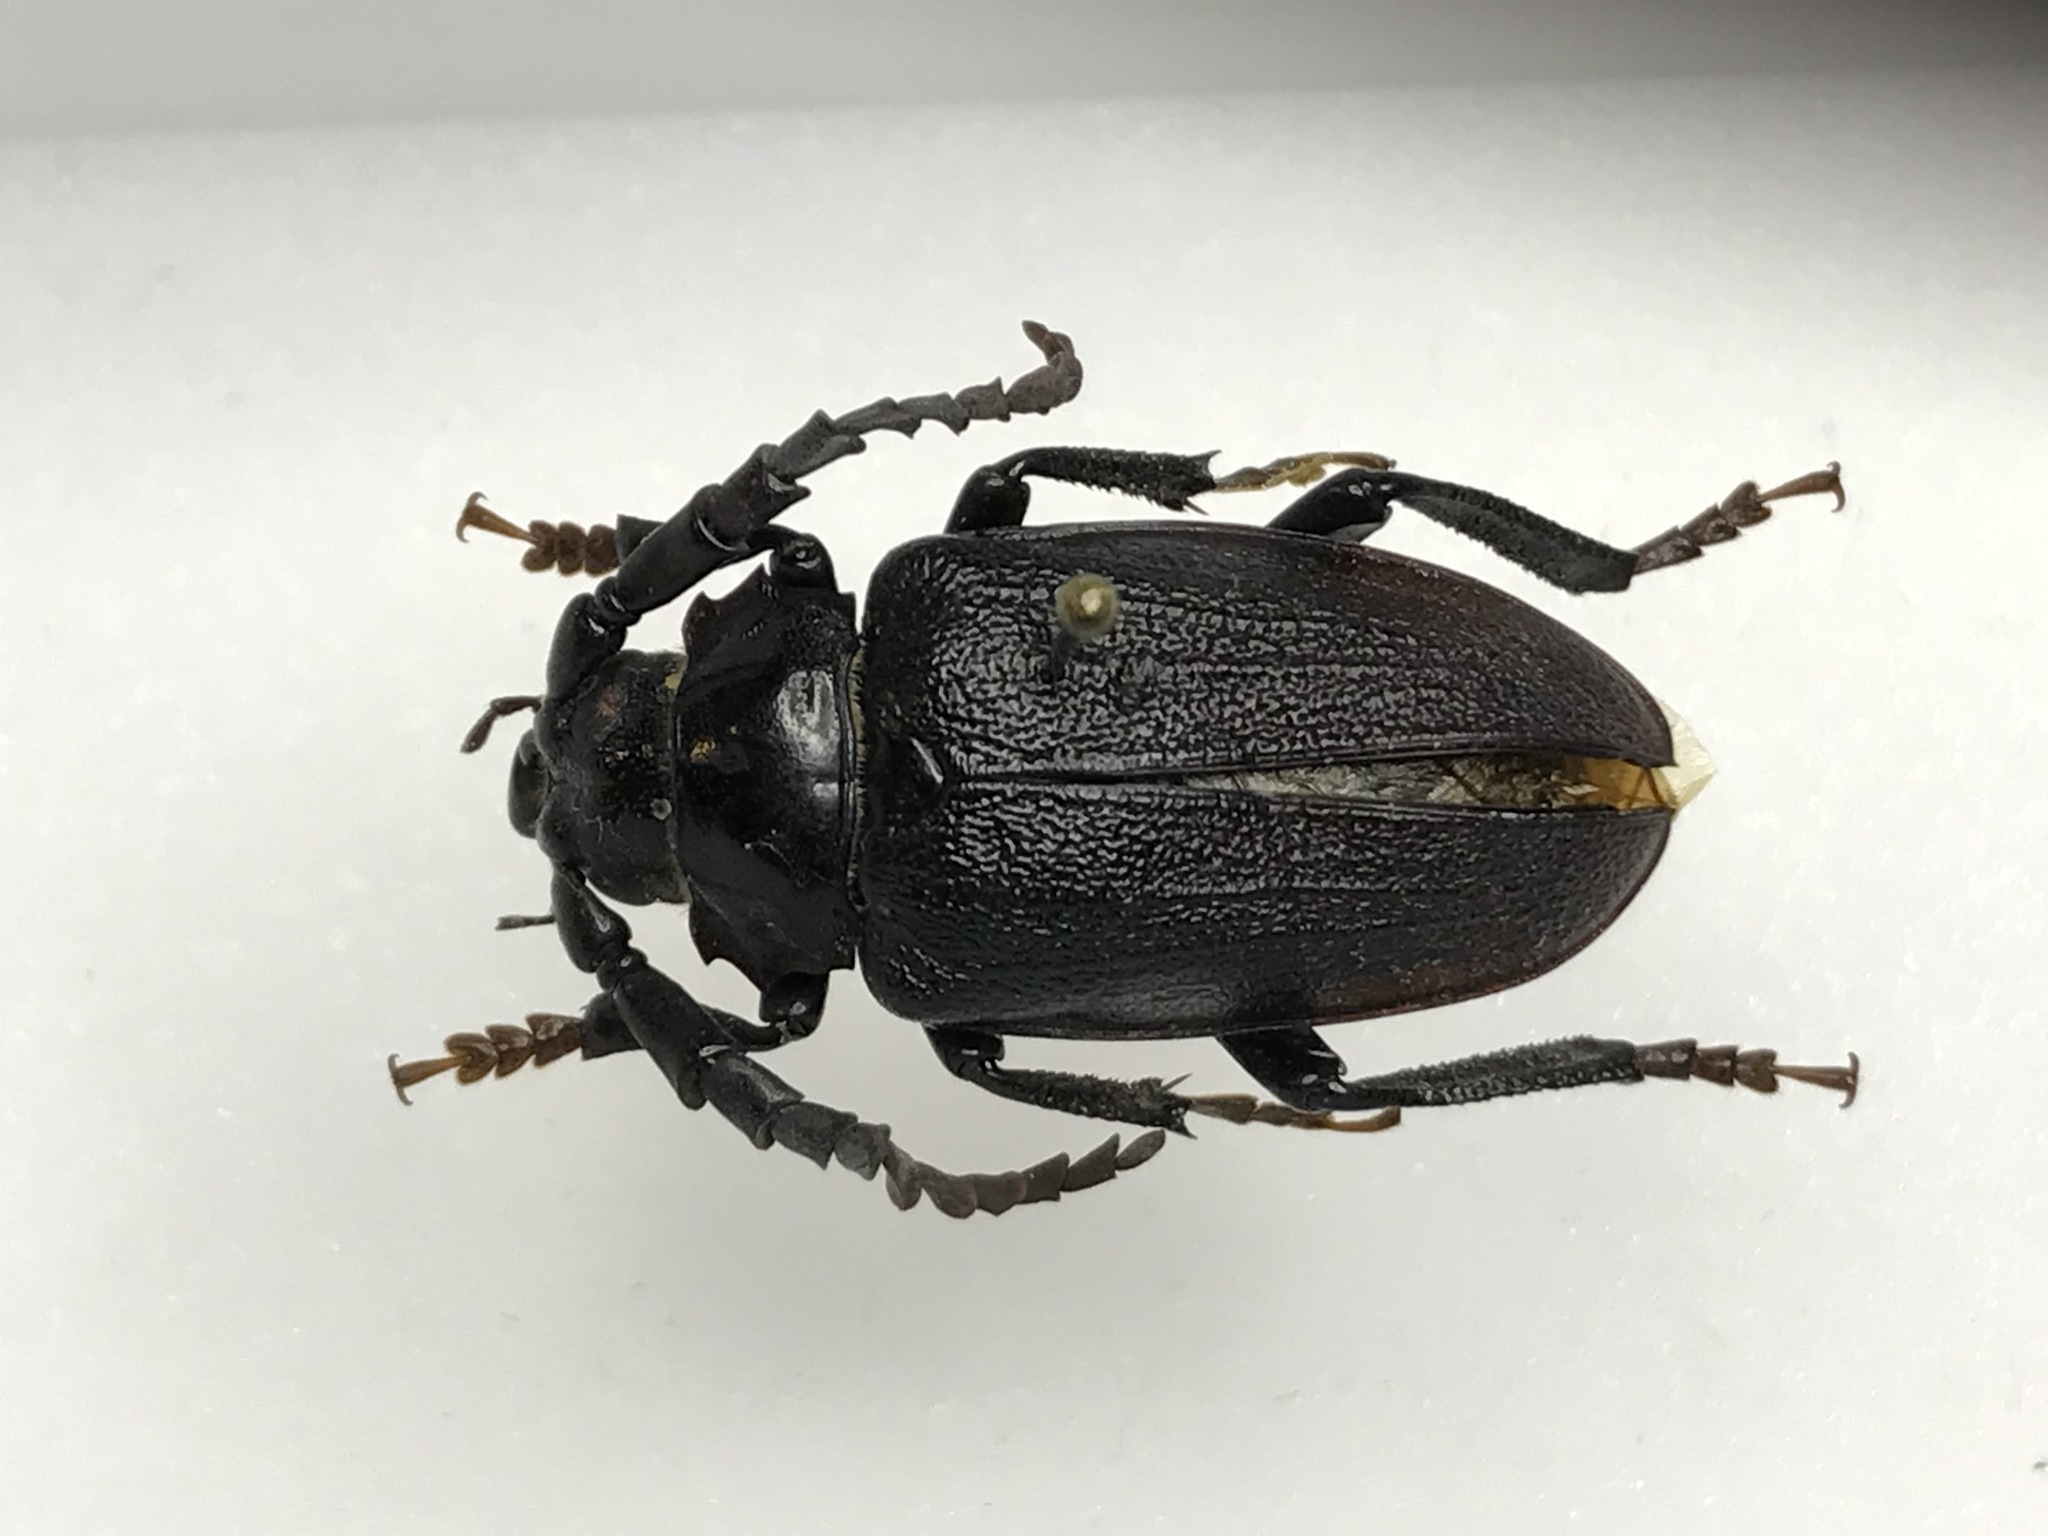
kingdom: Animalia
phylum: Arthropoda
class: Insecta
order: Coleoptera
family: Cerambycidae
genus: Prionus
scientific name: Prionus laticollis
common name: Broad necked prionus
